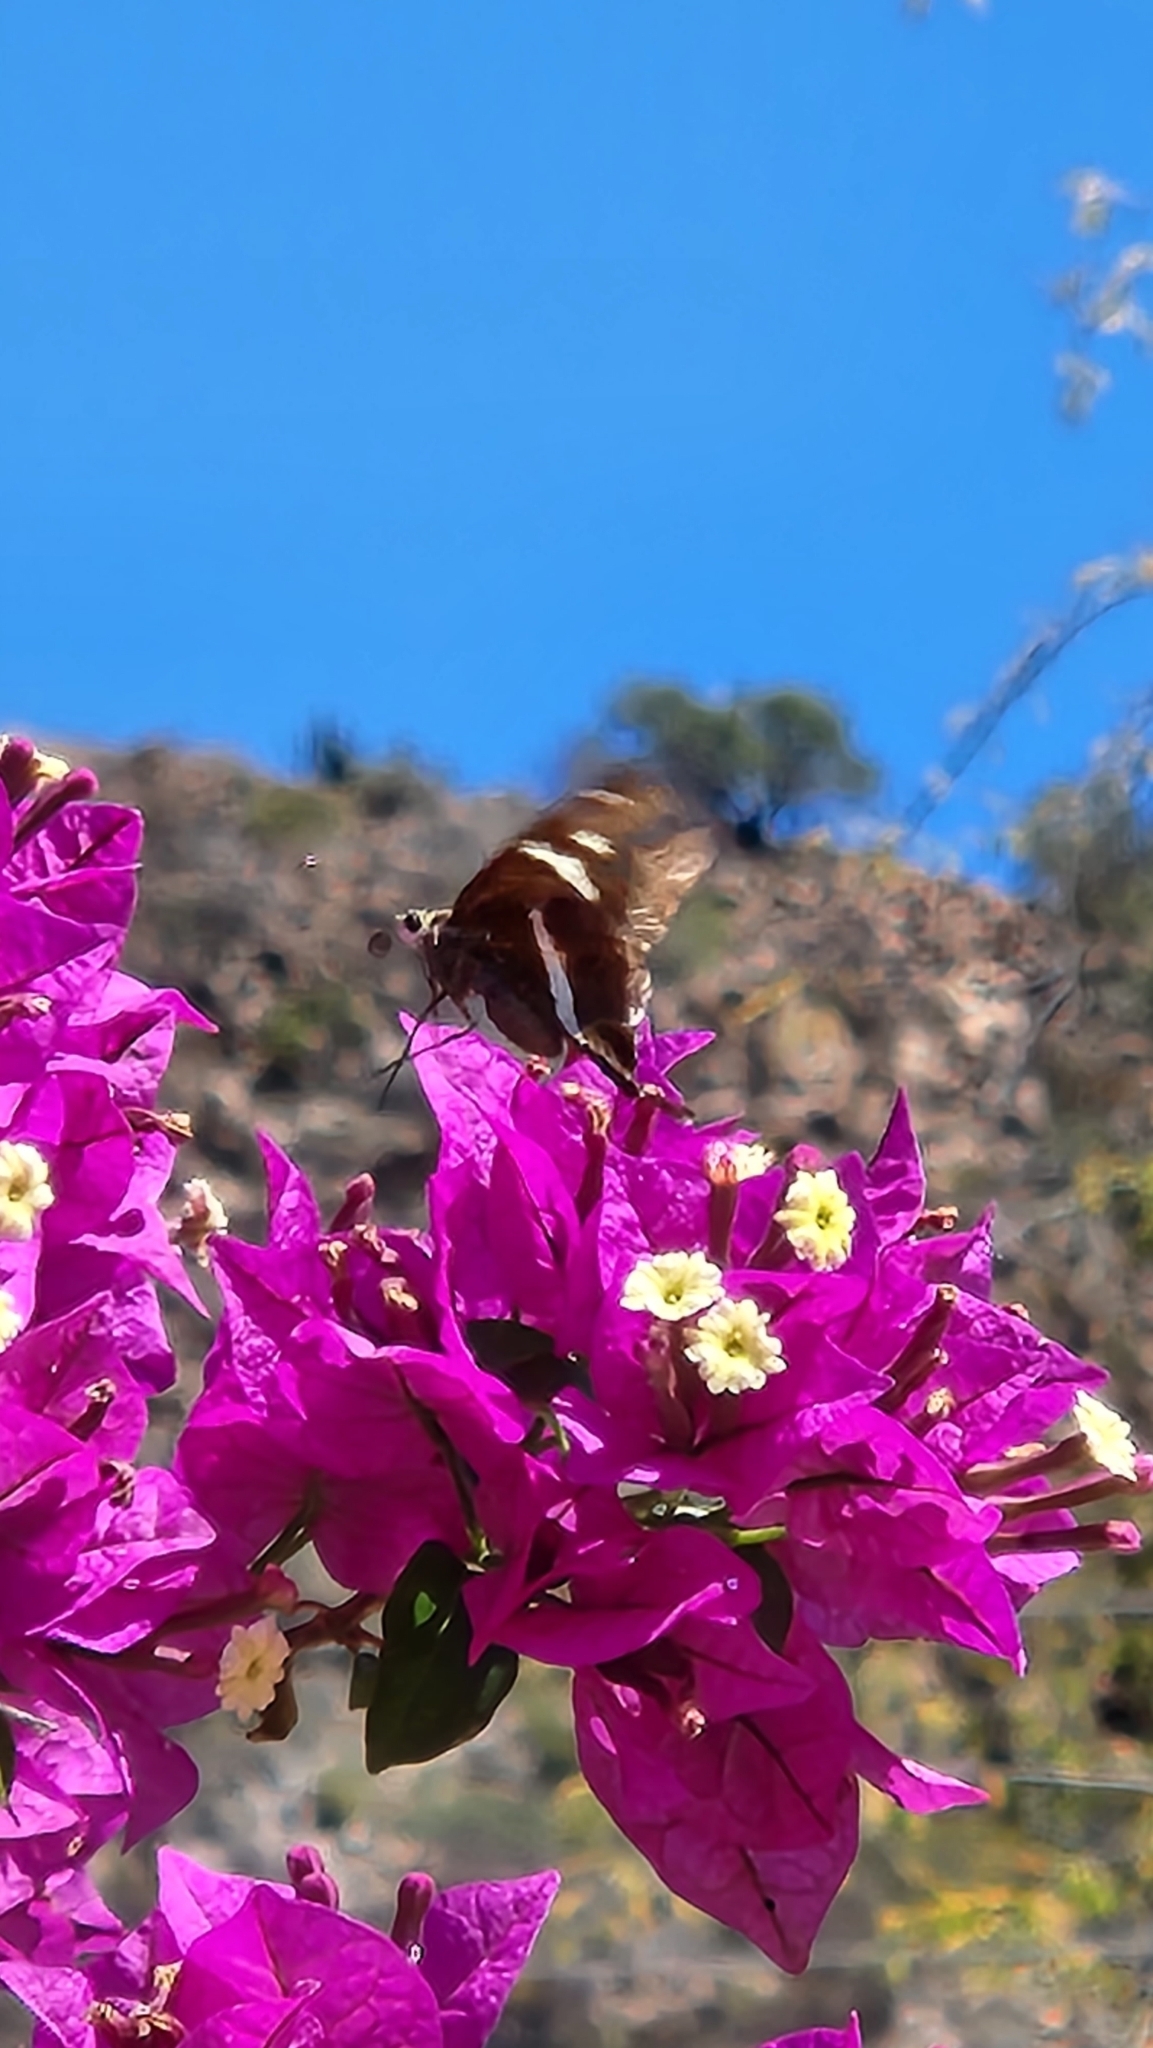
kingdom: Animalia
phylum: Arthropoda
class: Insecta
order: Lepidoptera
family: Hesperiidae
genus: Chioides
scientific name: Chioides catillus
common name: Silverbanded skipper
